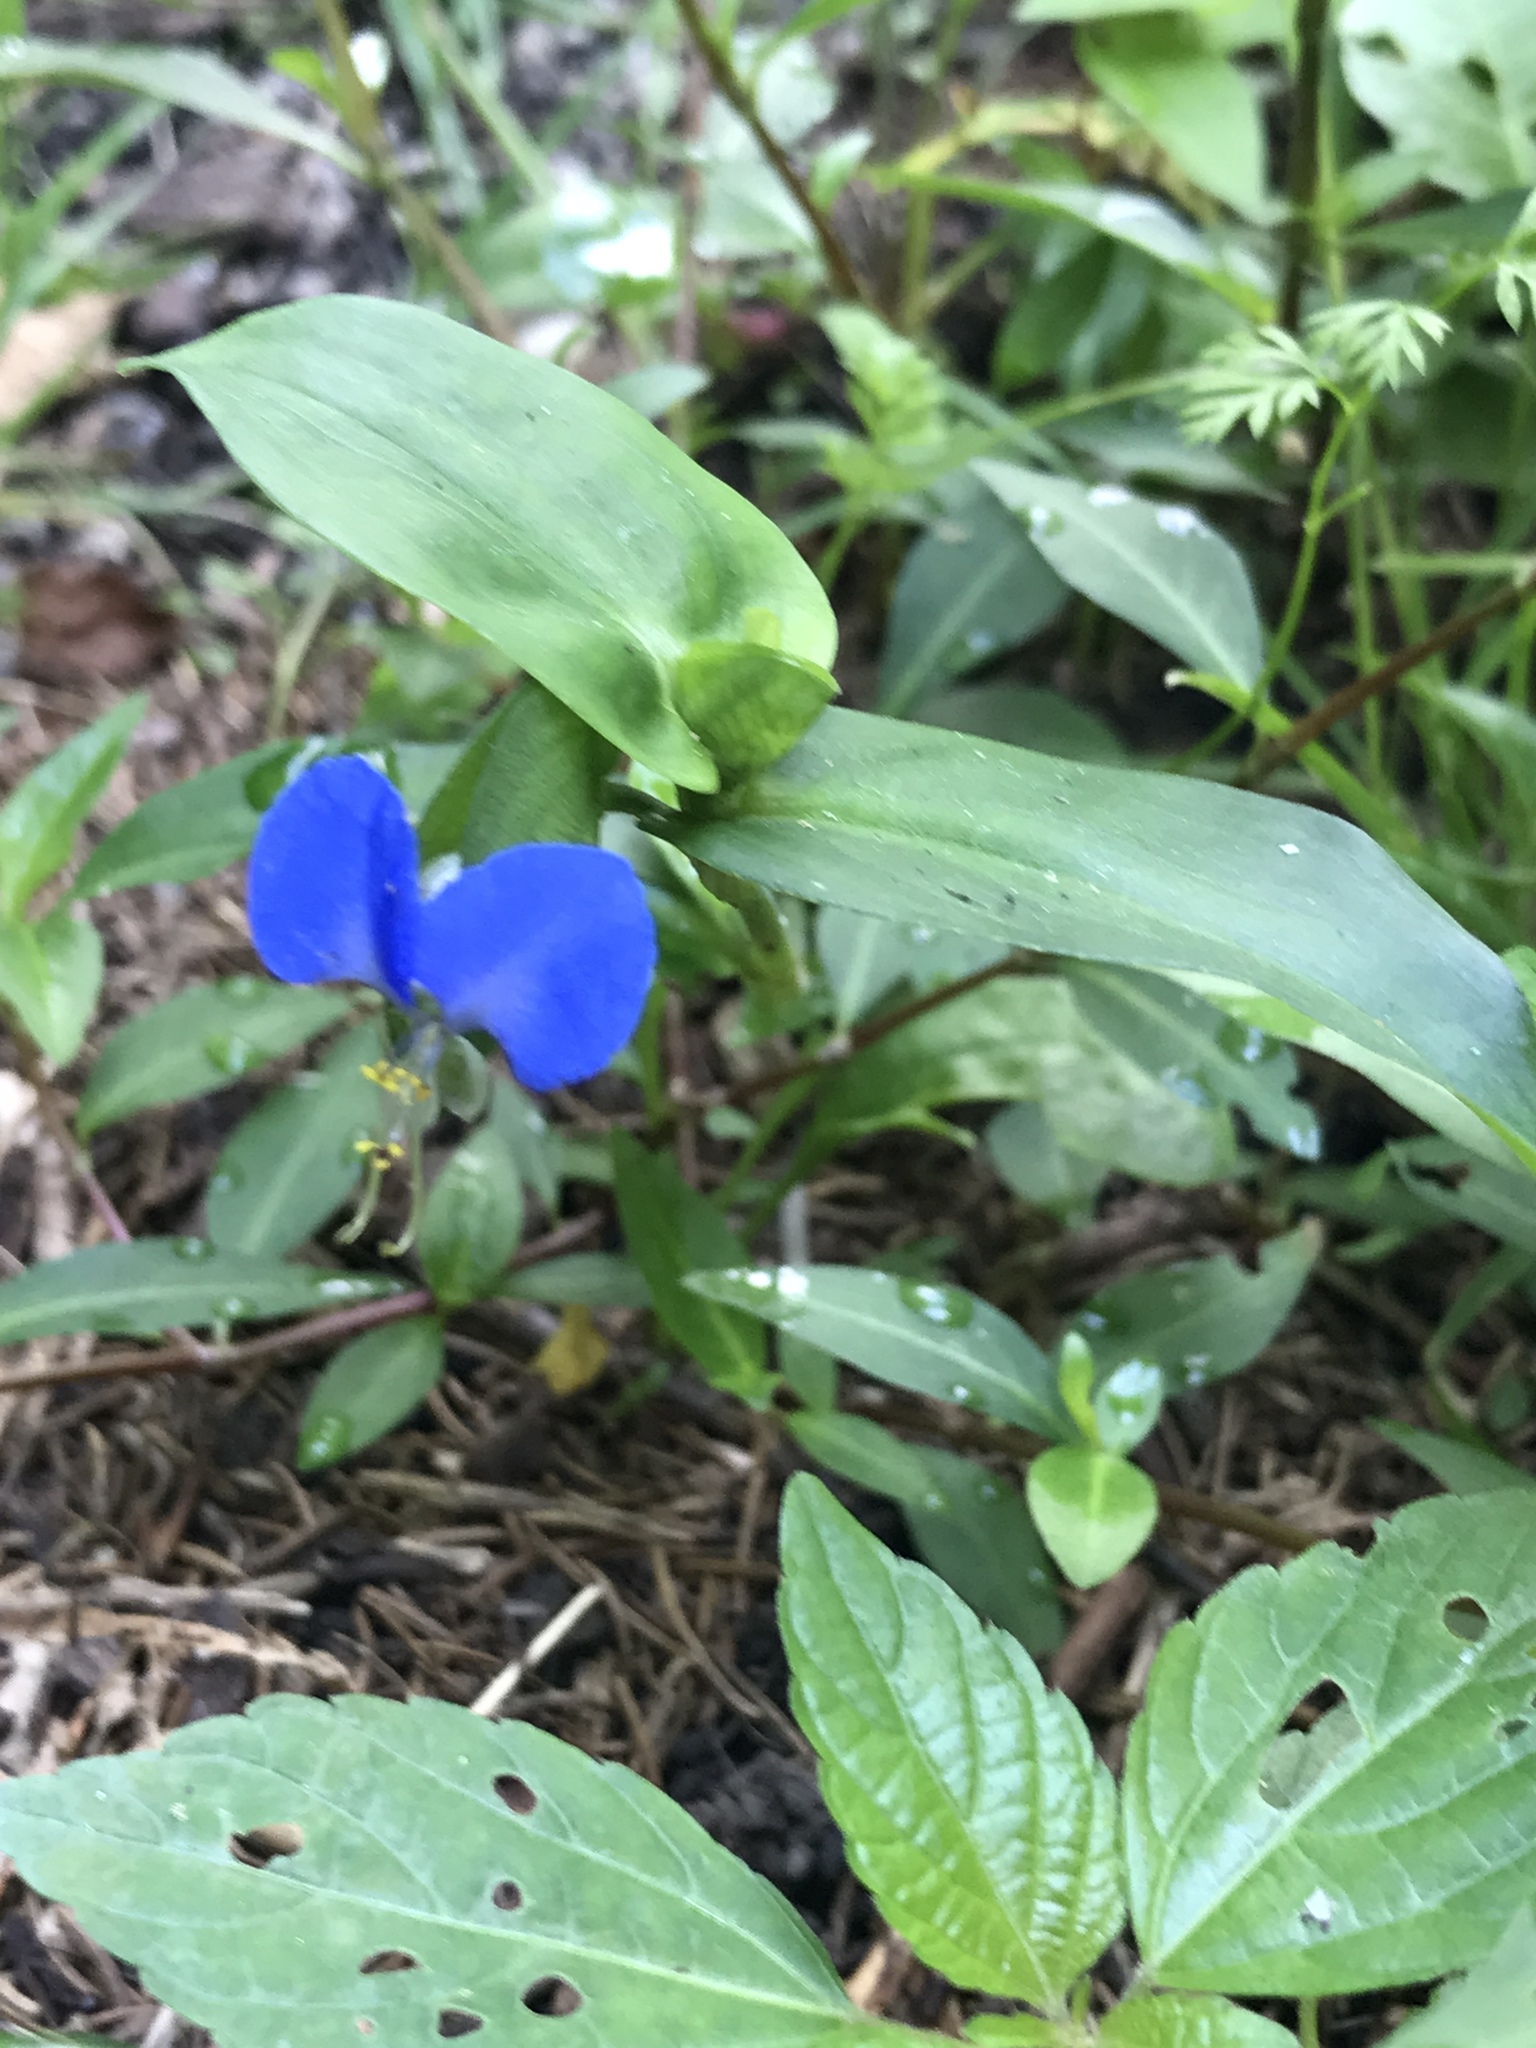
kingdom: Plantae
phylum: Tracheophyta
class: Liliopsida
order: Commelinales
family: Commelinaceae
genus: Commelina
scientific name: Commelina communis
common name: Asiatic dayflower
